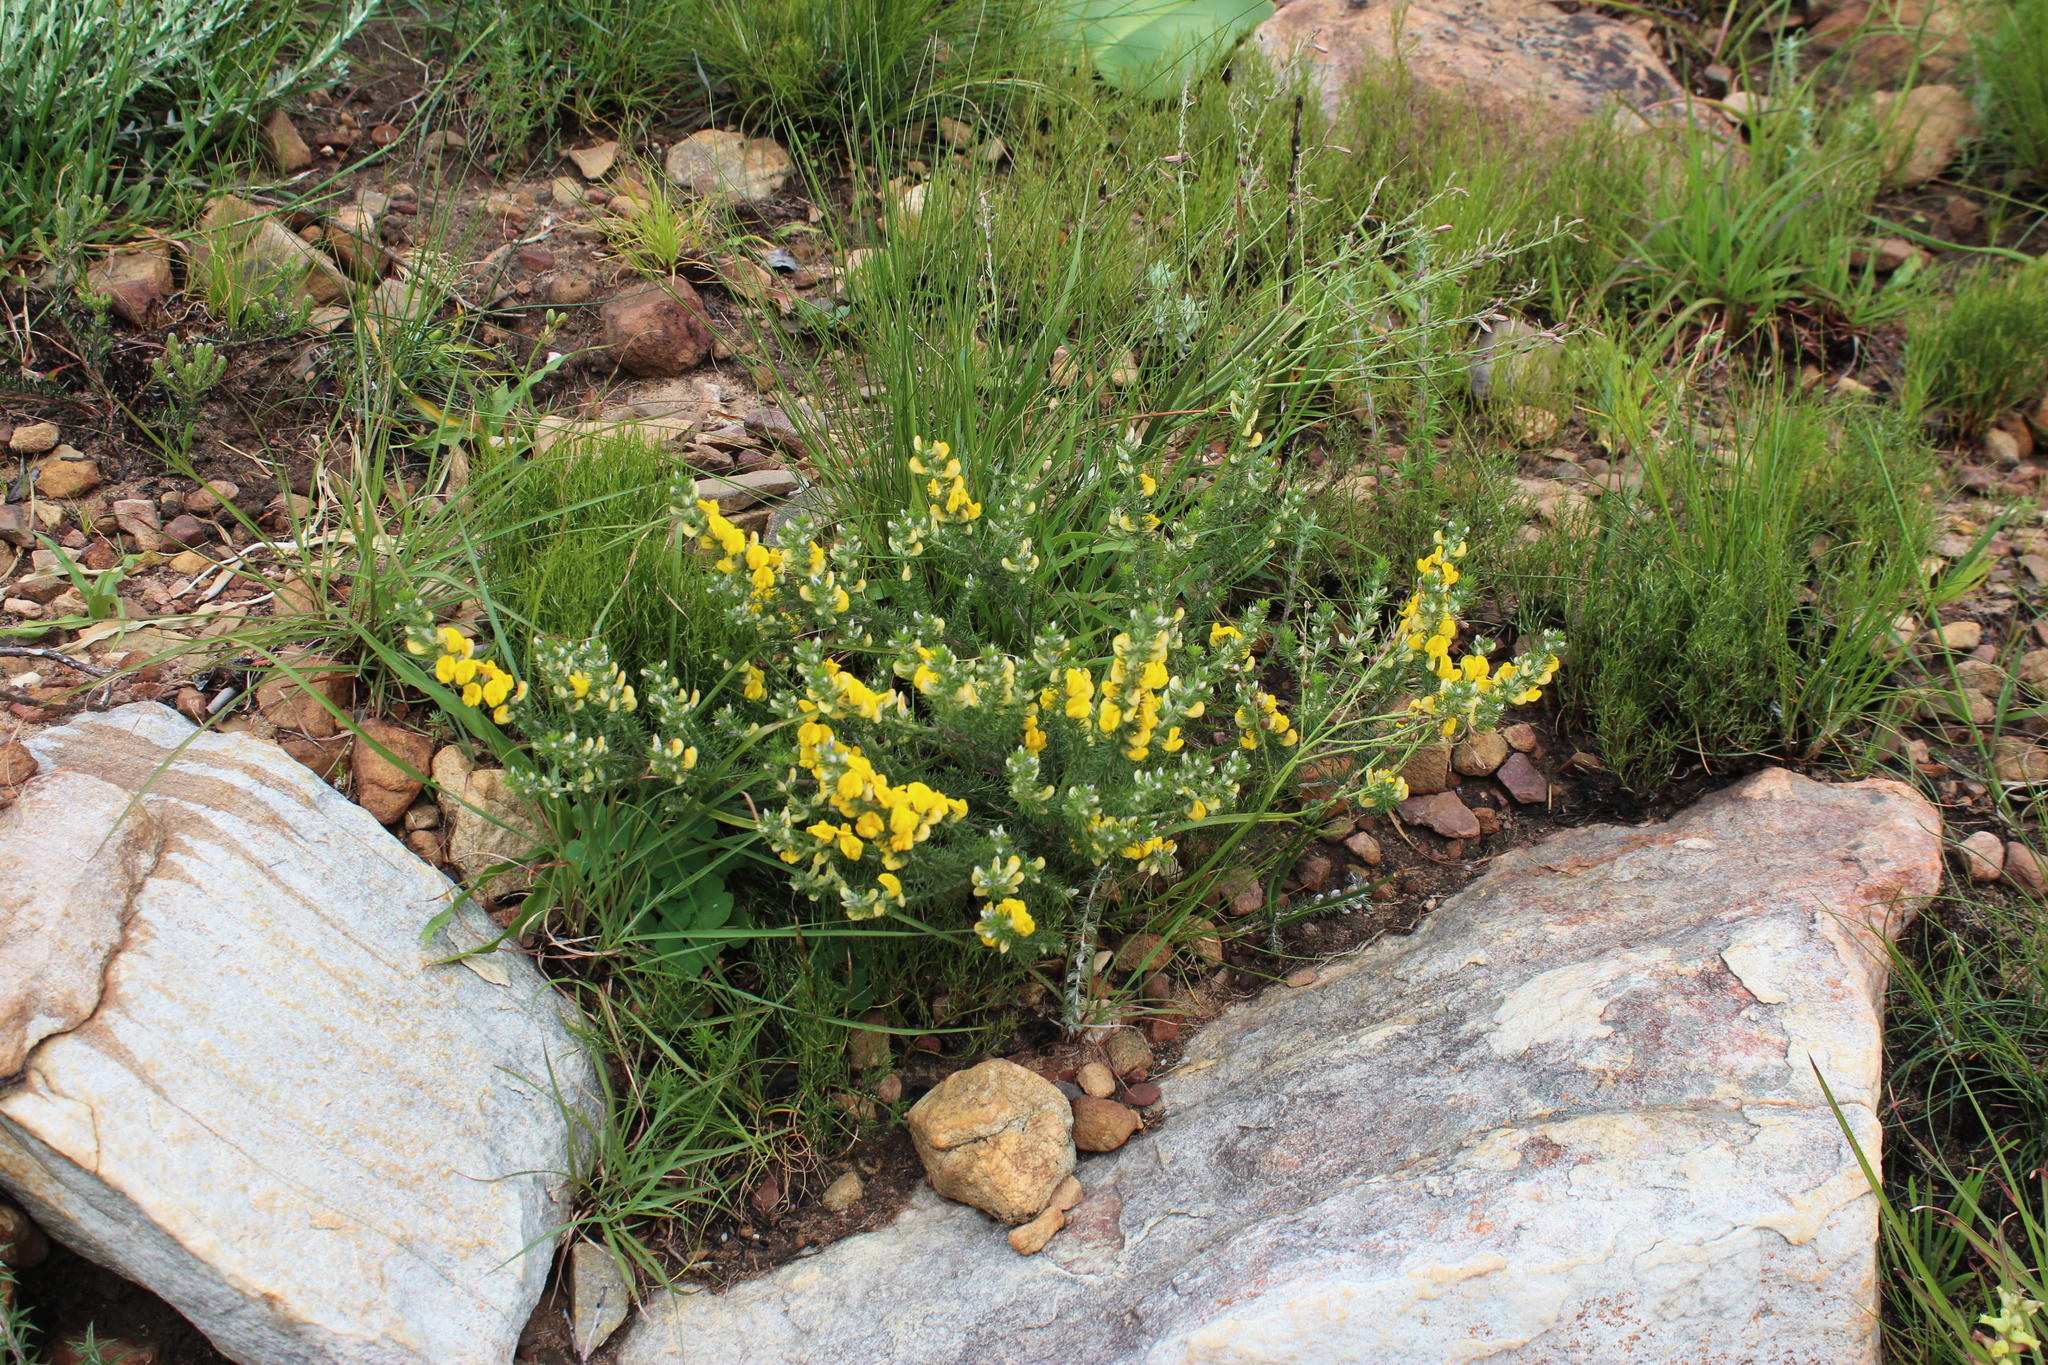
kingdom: Plantae
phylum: Tracheophyta
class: Magnoliopsida
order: Fabales
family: Fabaceae
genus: Aspalathus
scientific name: Aspalathus laricifolia
